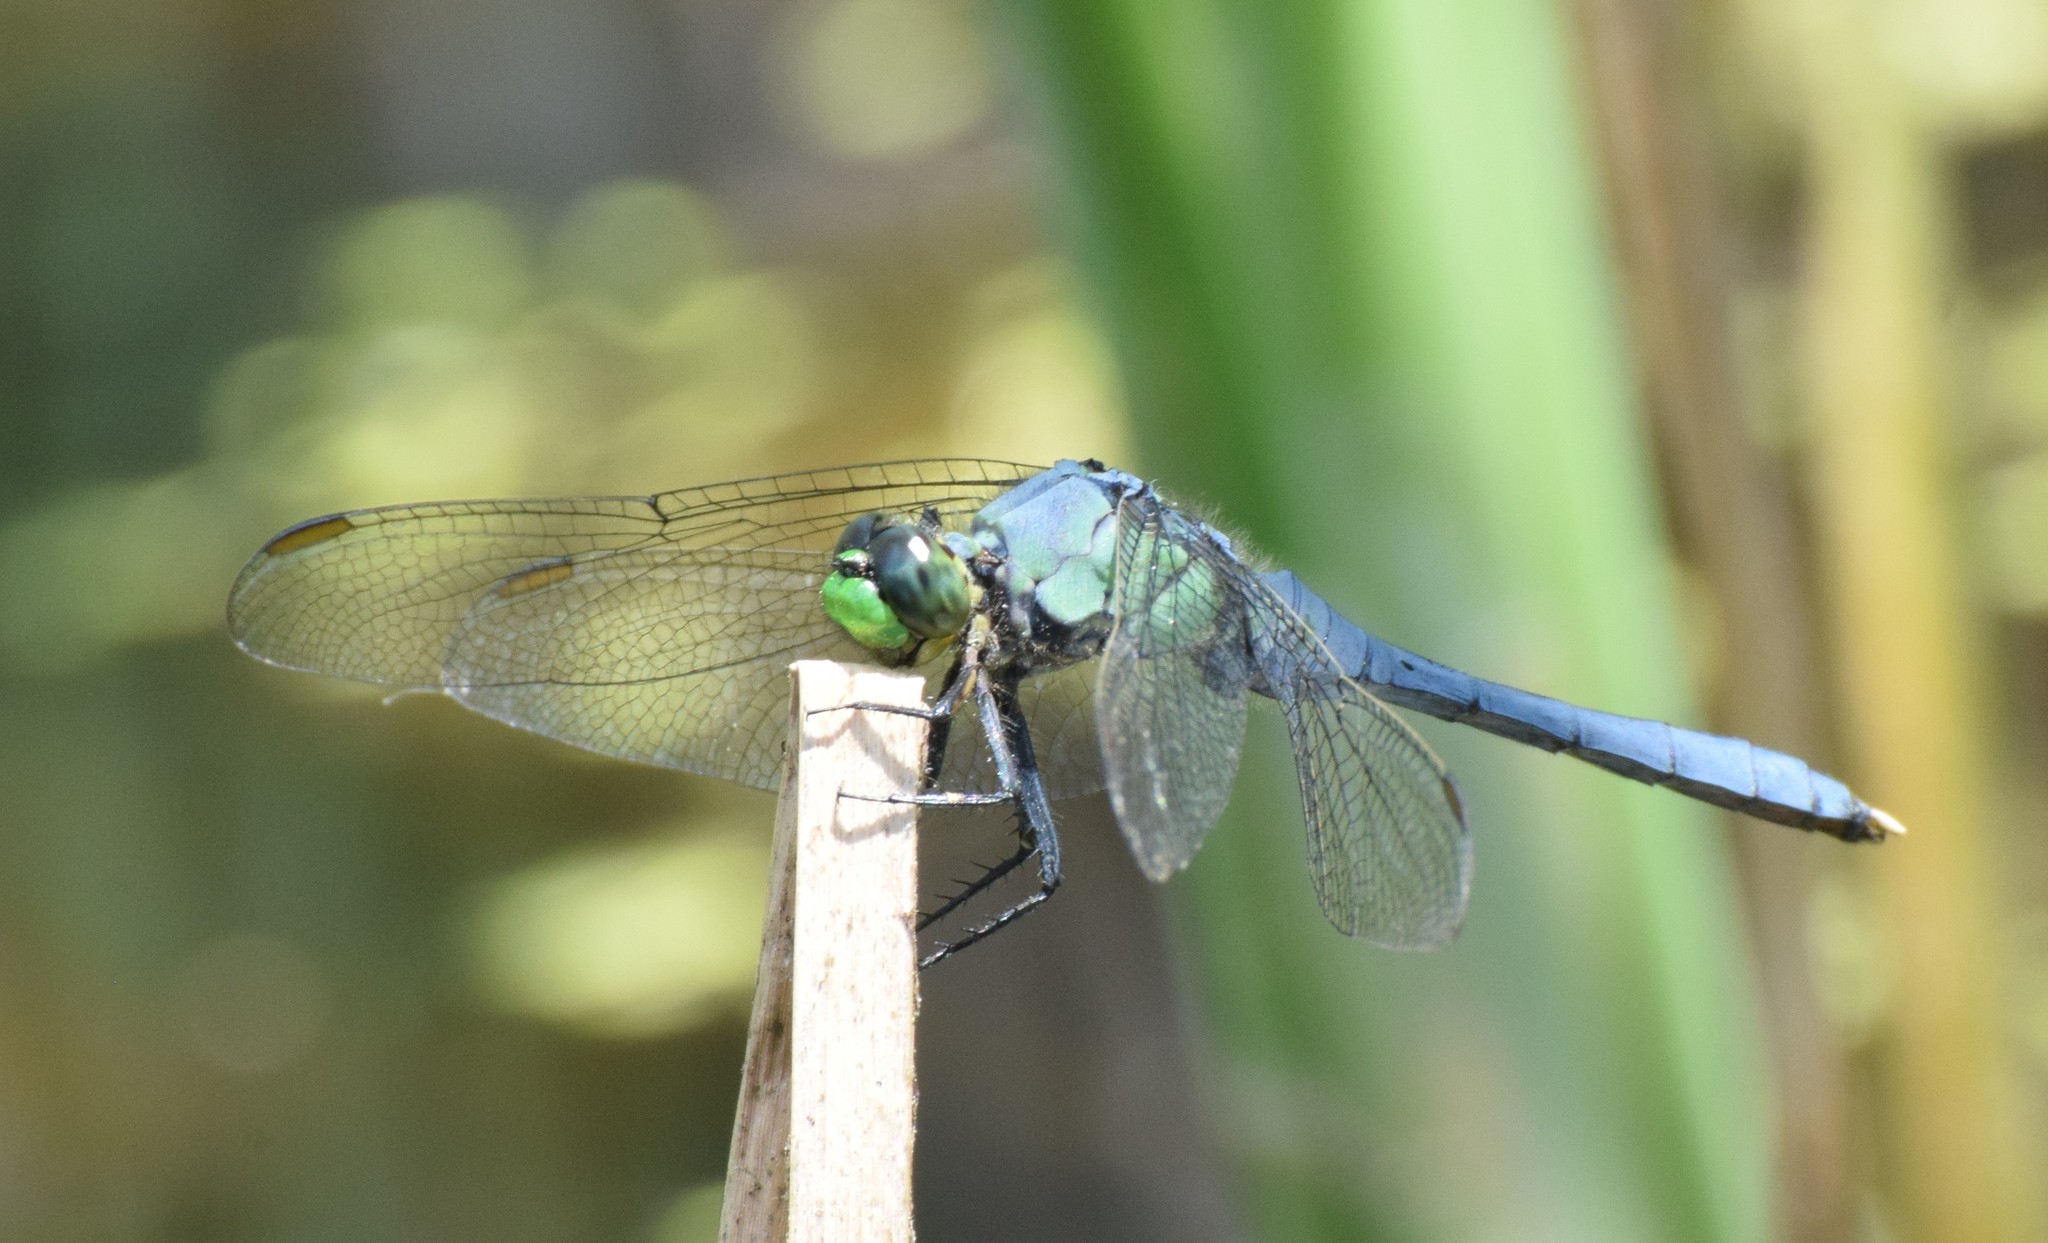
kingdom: Animalia
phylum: Arthropoda
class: Insecta
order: Odonata
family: Libellulidae
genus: Erythemis
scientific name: Erythemis simplicicollis
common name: Eastern pondhawk
